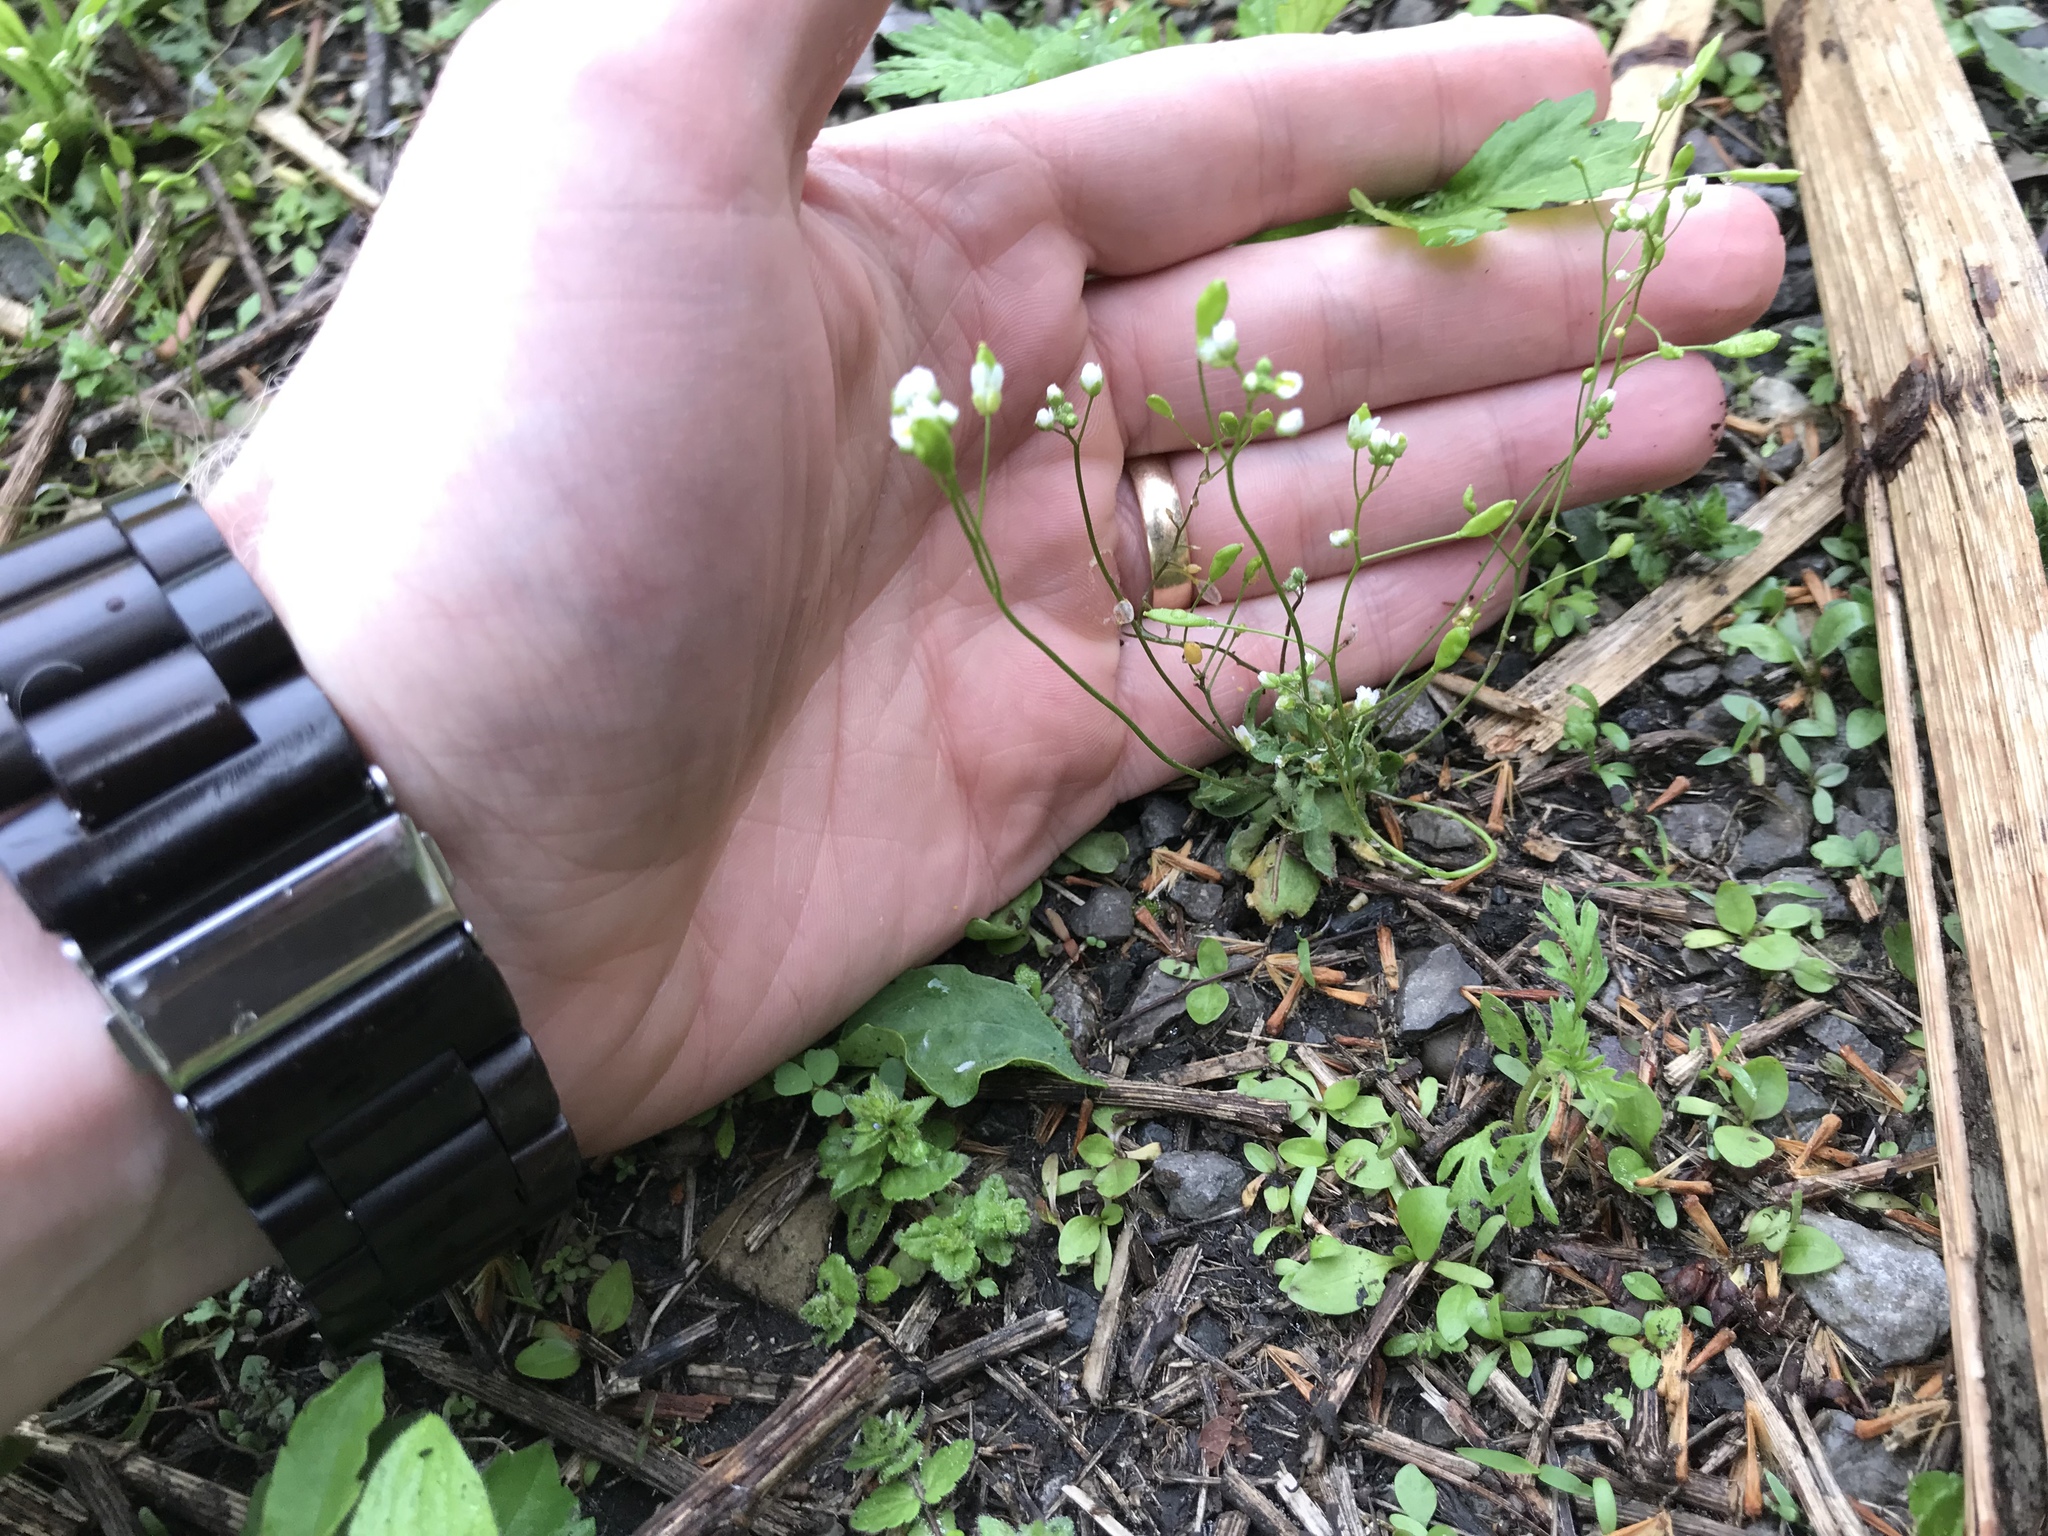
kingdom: Plantae
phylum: Tracheophyta
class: Magnoliopsida
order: Brassicales
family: Brassicaceae
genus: Draba
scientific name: Draba verna
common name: Spring draba
